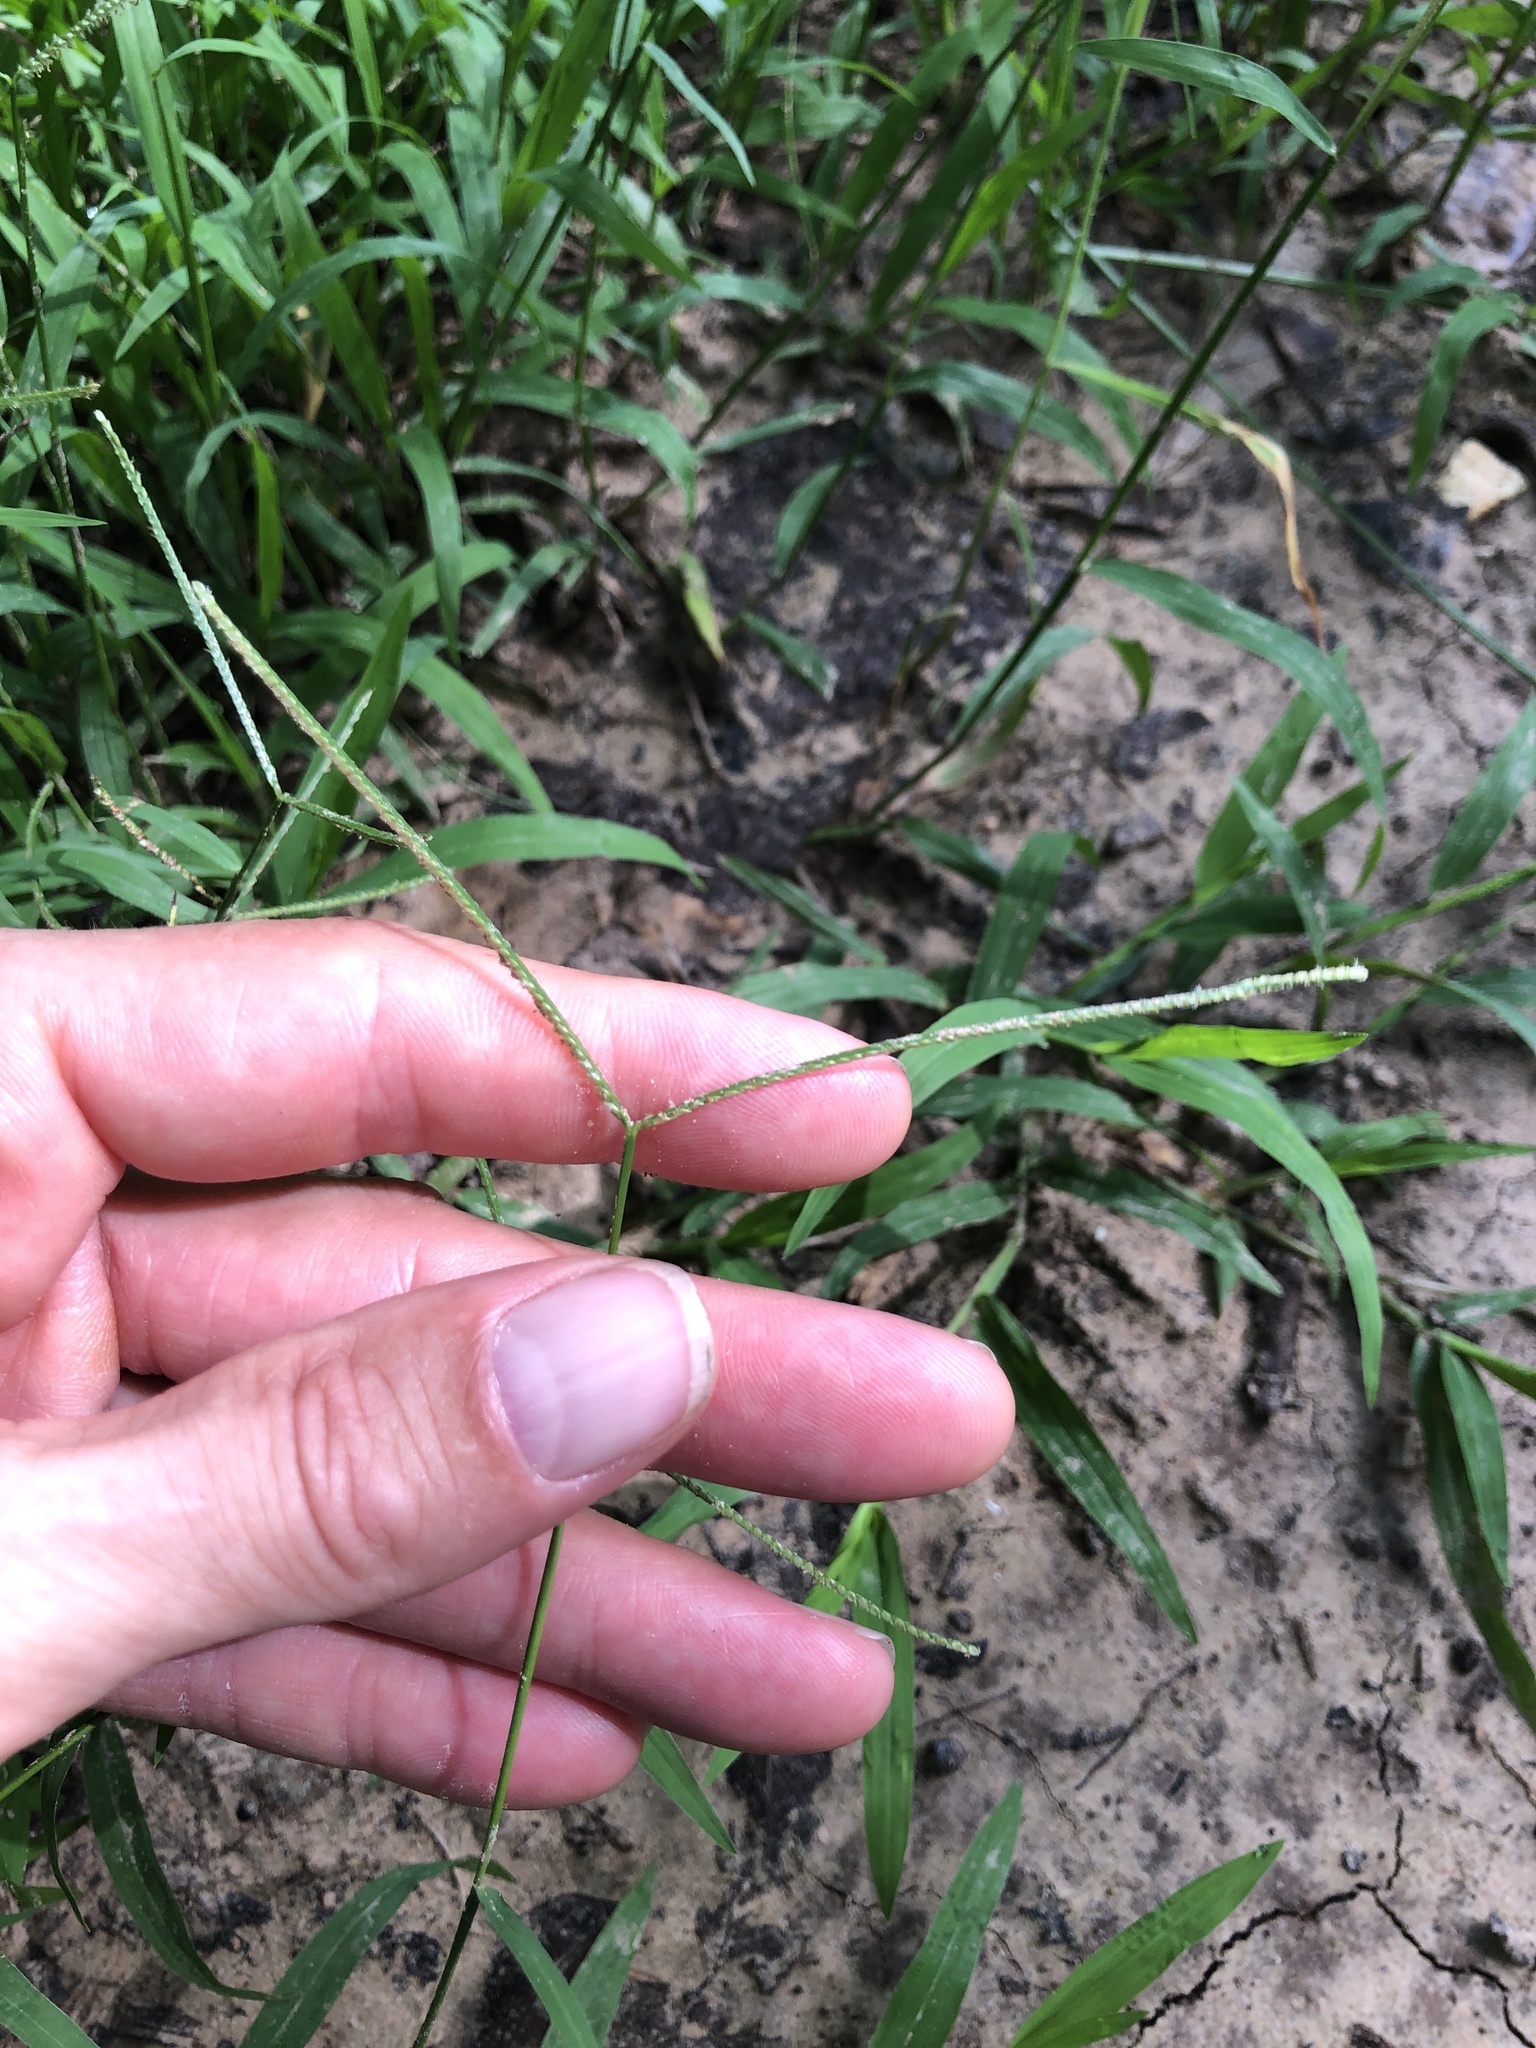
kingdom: Plantae
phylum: Tracheophyta
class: Liliopsida
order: Poales
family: Poaceae
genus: Axonopus
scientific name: Axonopus fissifolius
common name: Common carpetgrass
